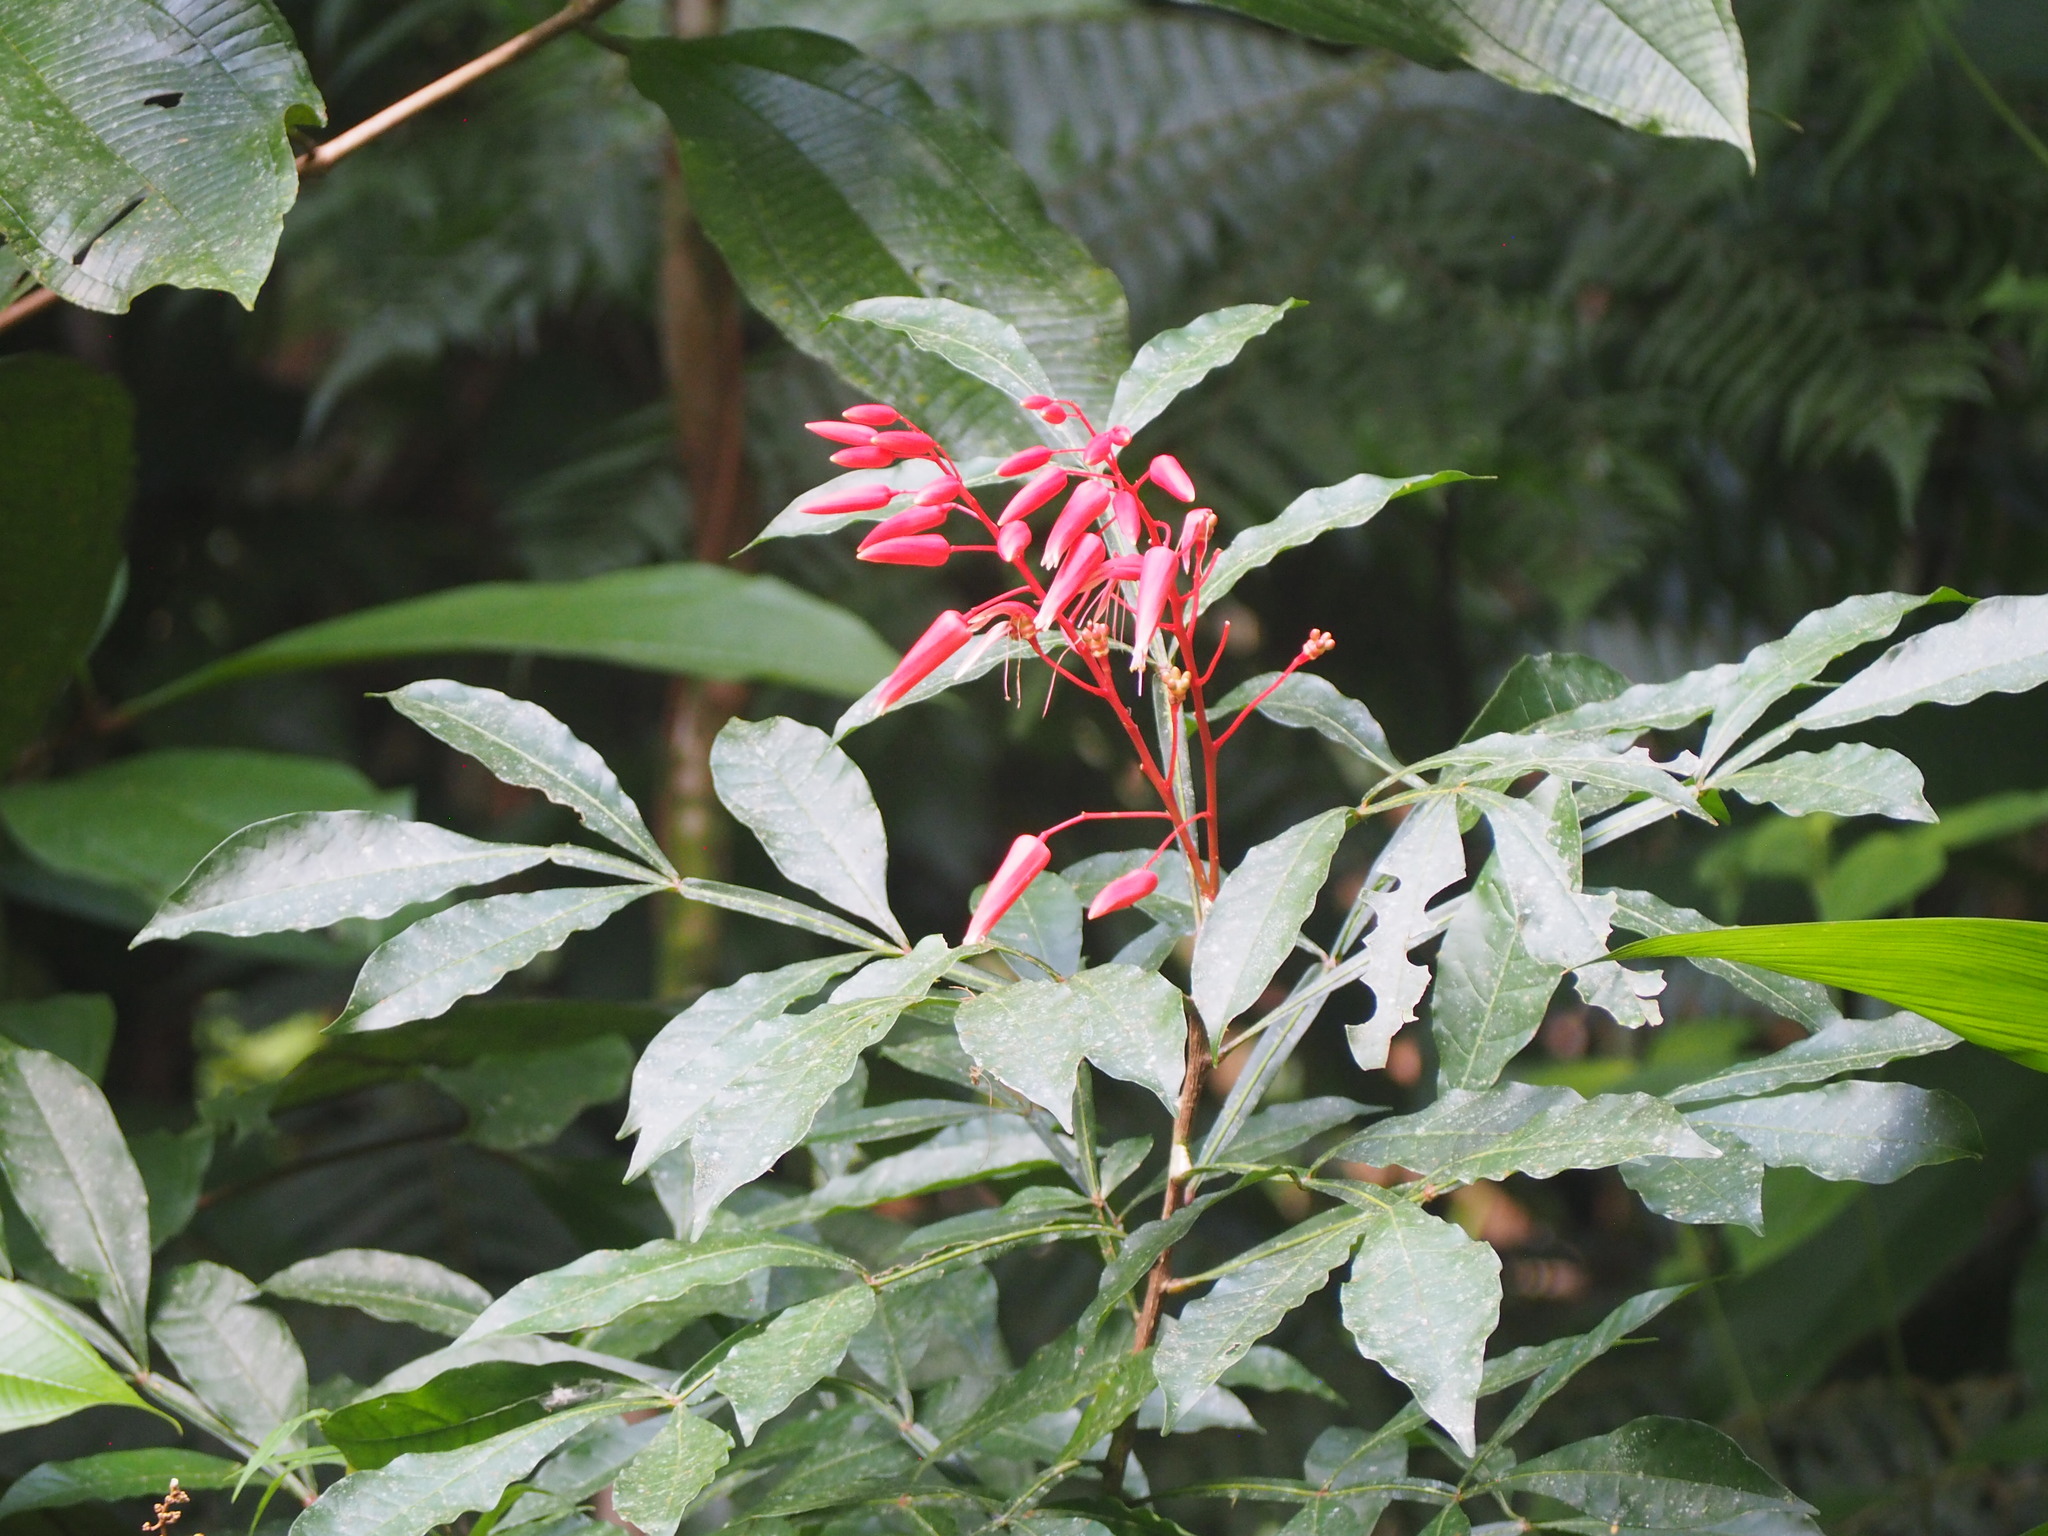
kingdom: Plantae
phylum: Tracheophyta
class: Magnoliopsida
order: Sapindales
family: Simaroubaceae
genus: Quassia
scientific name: Quassia amara
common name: Quassia
